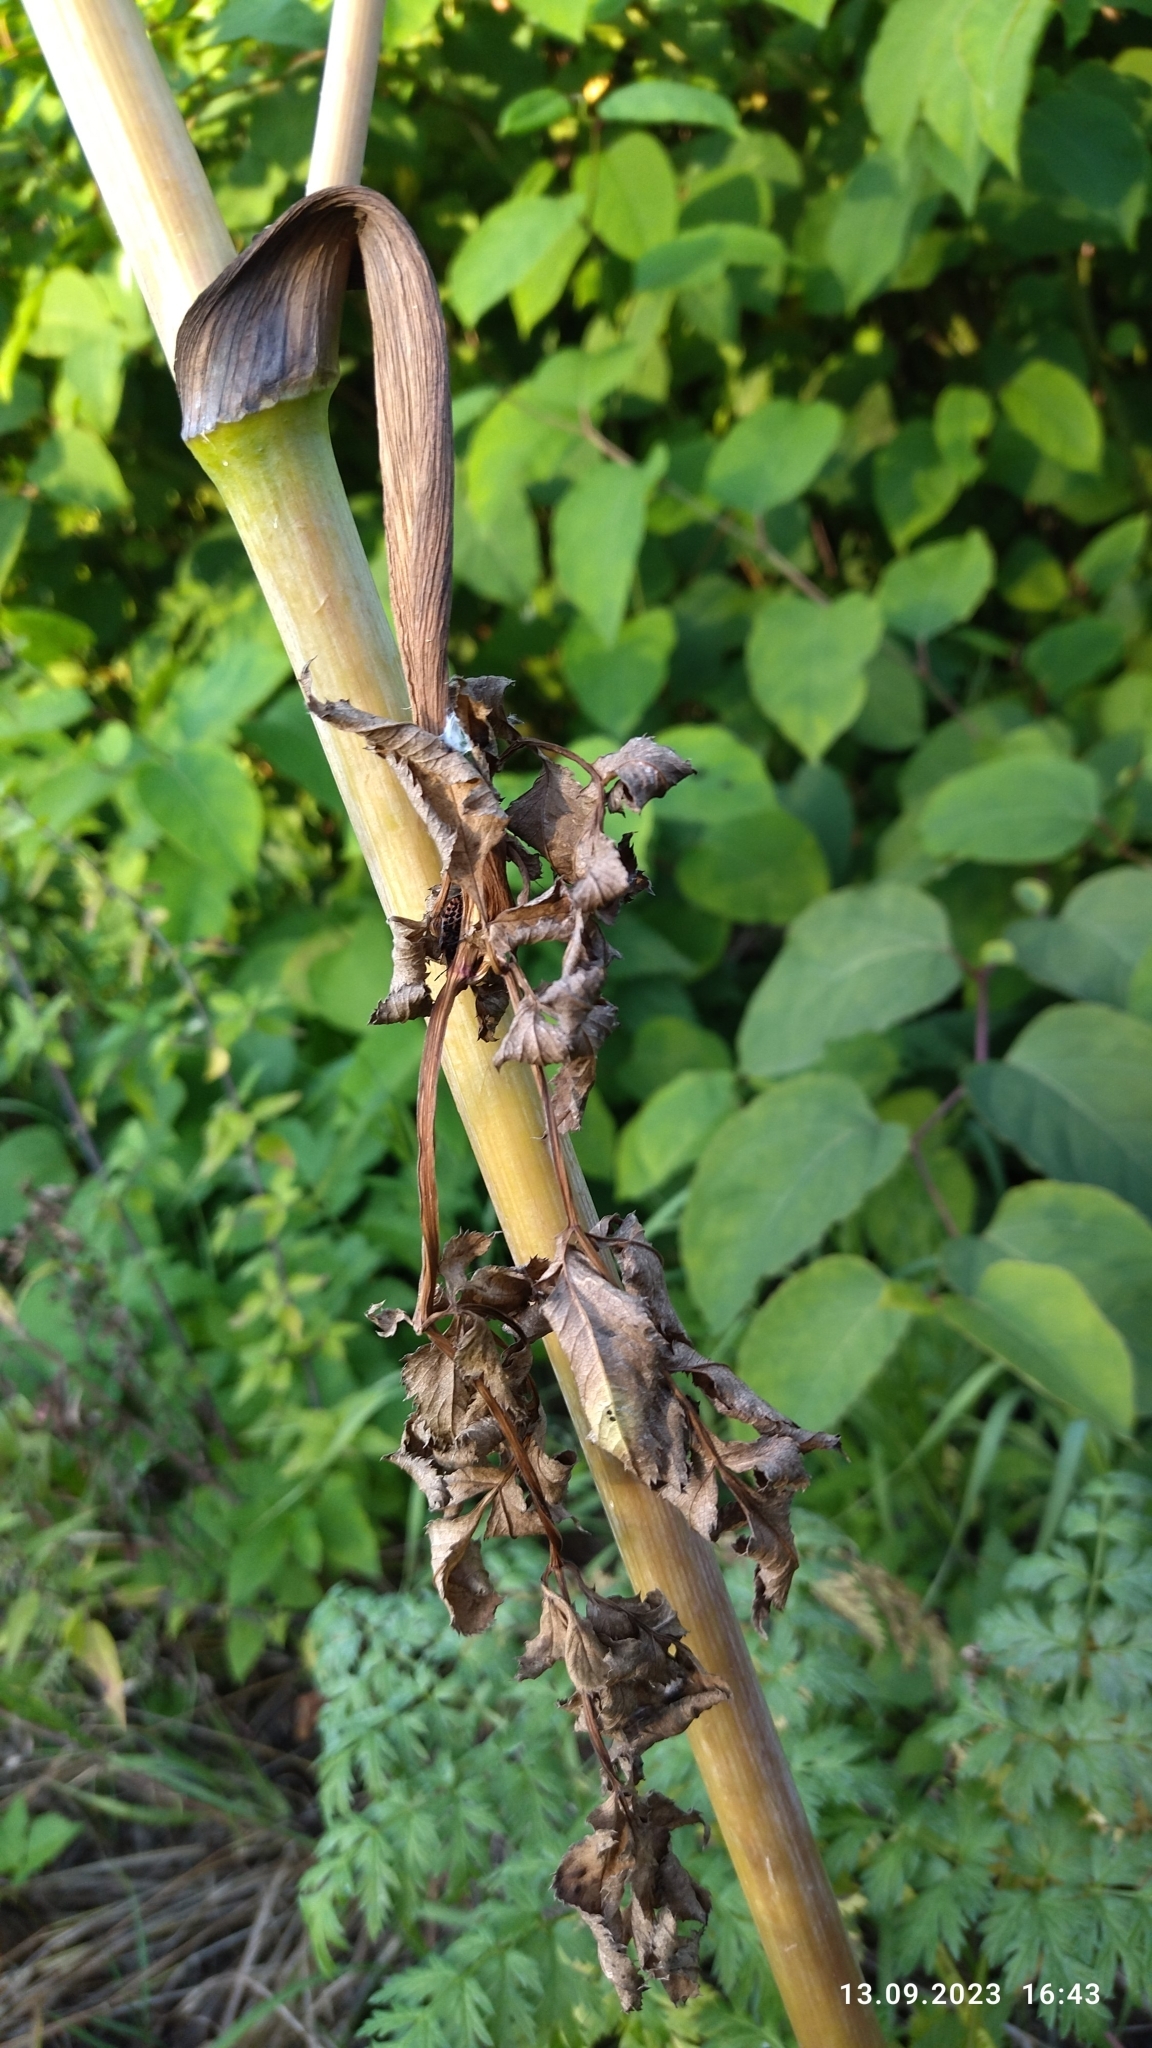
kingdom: Plantae
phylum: Tracheophyta
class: Magnoliopsida
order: Apiales
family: Apiaceae
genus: Angelica
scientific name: Angelica sylvestris
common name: Wild angelica
